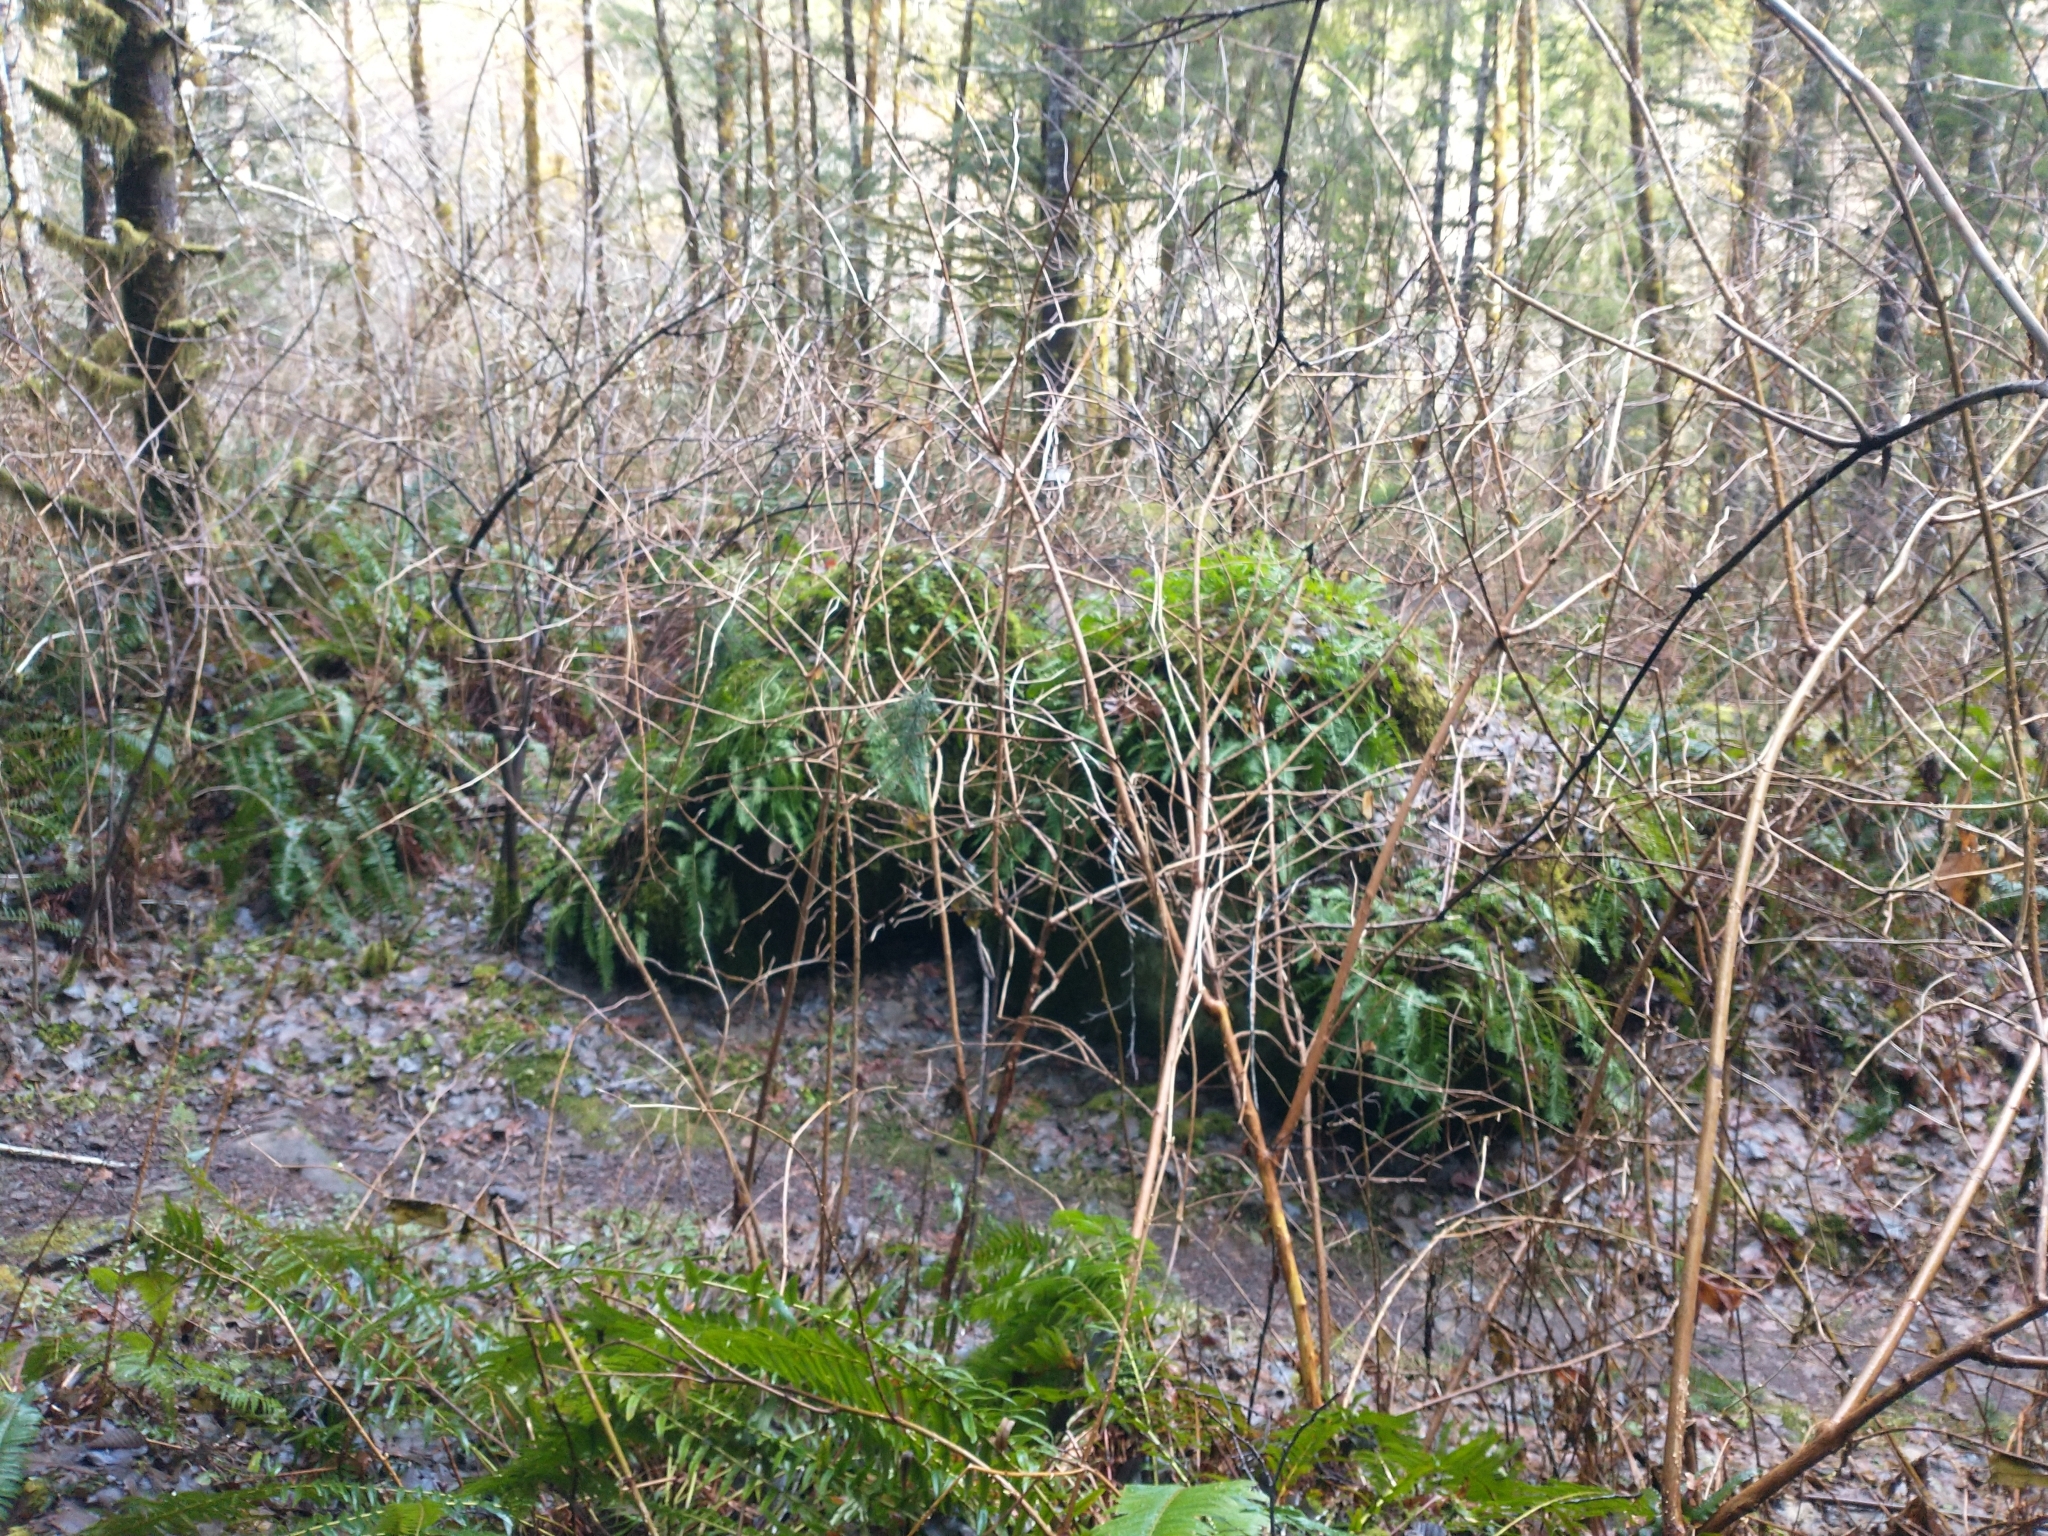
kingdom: Plantae
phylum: Tracheophyta
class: Magnoliopsida
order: Rosales
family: Rosaceae
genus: Rubus
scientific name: Rubus spectabilis
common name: Salmonberry
